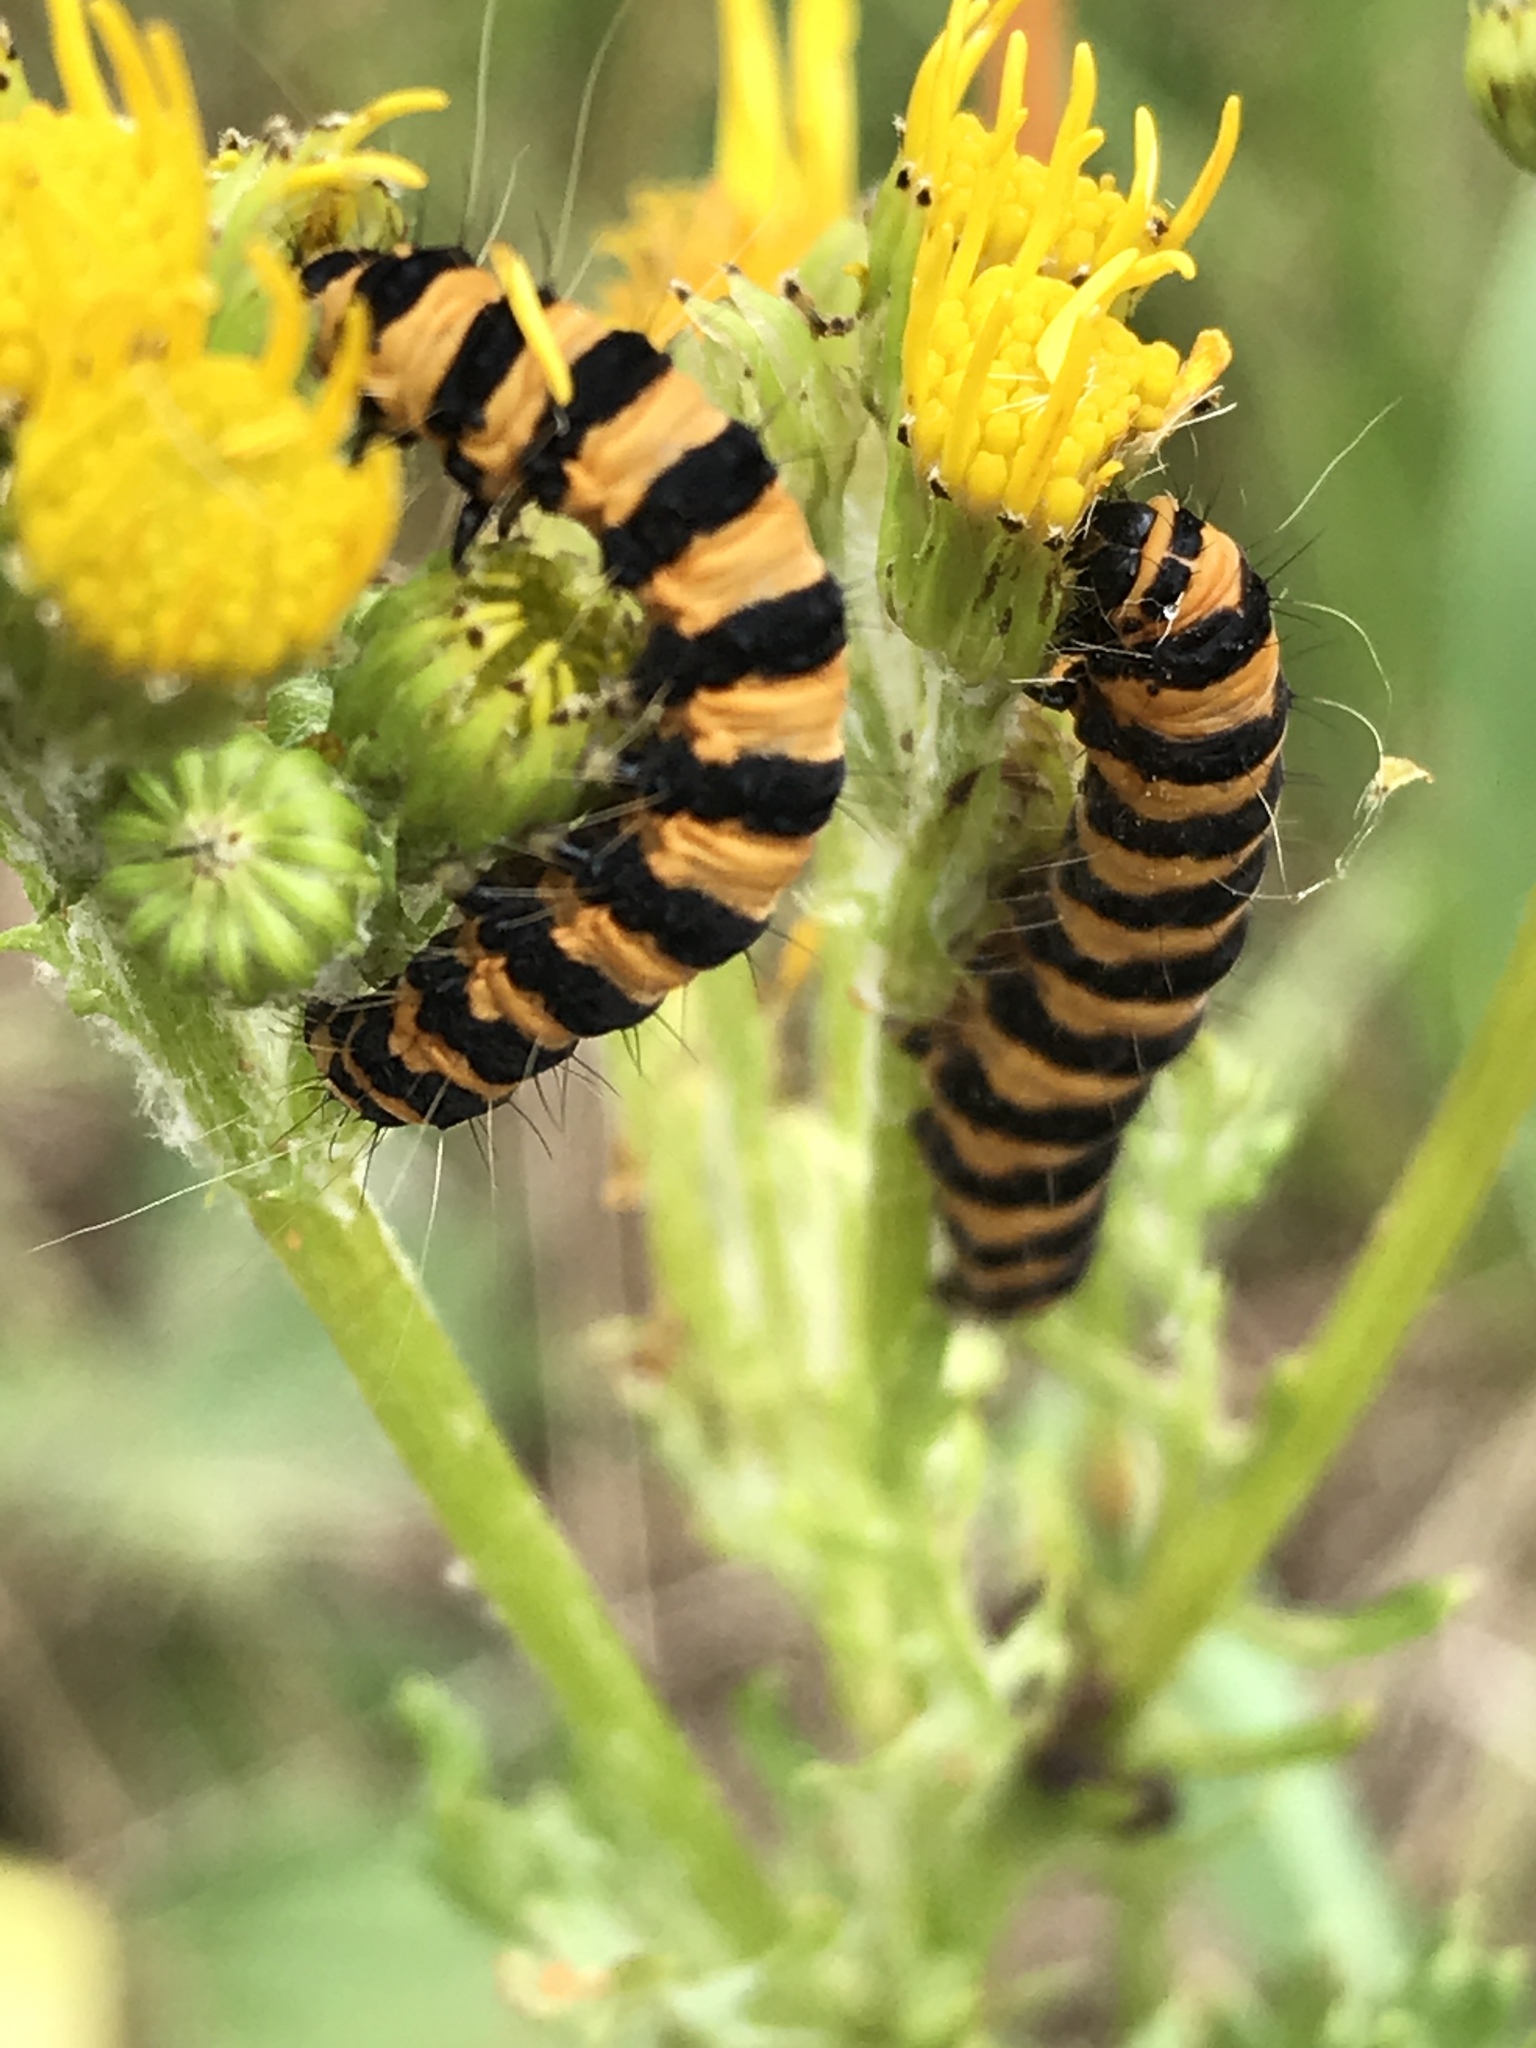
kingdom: Animalia
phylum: Arthropoda
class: Insecta
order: Lepidoptera
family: Erebidae
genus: Tyria
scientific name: Tyria jacobaeae
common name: Cinnabar
